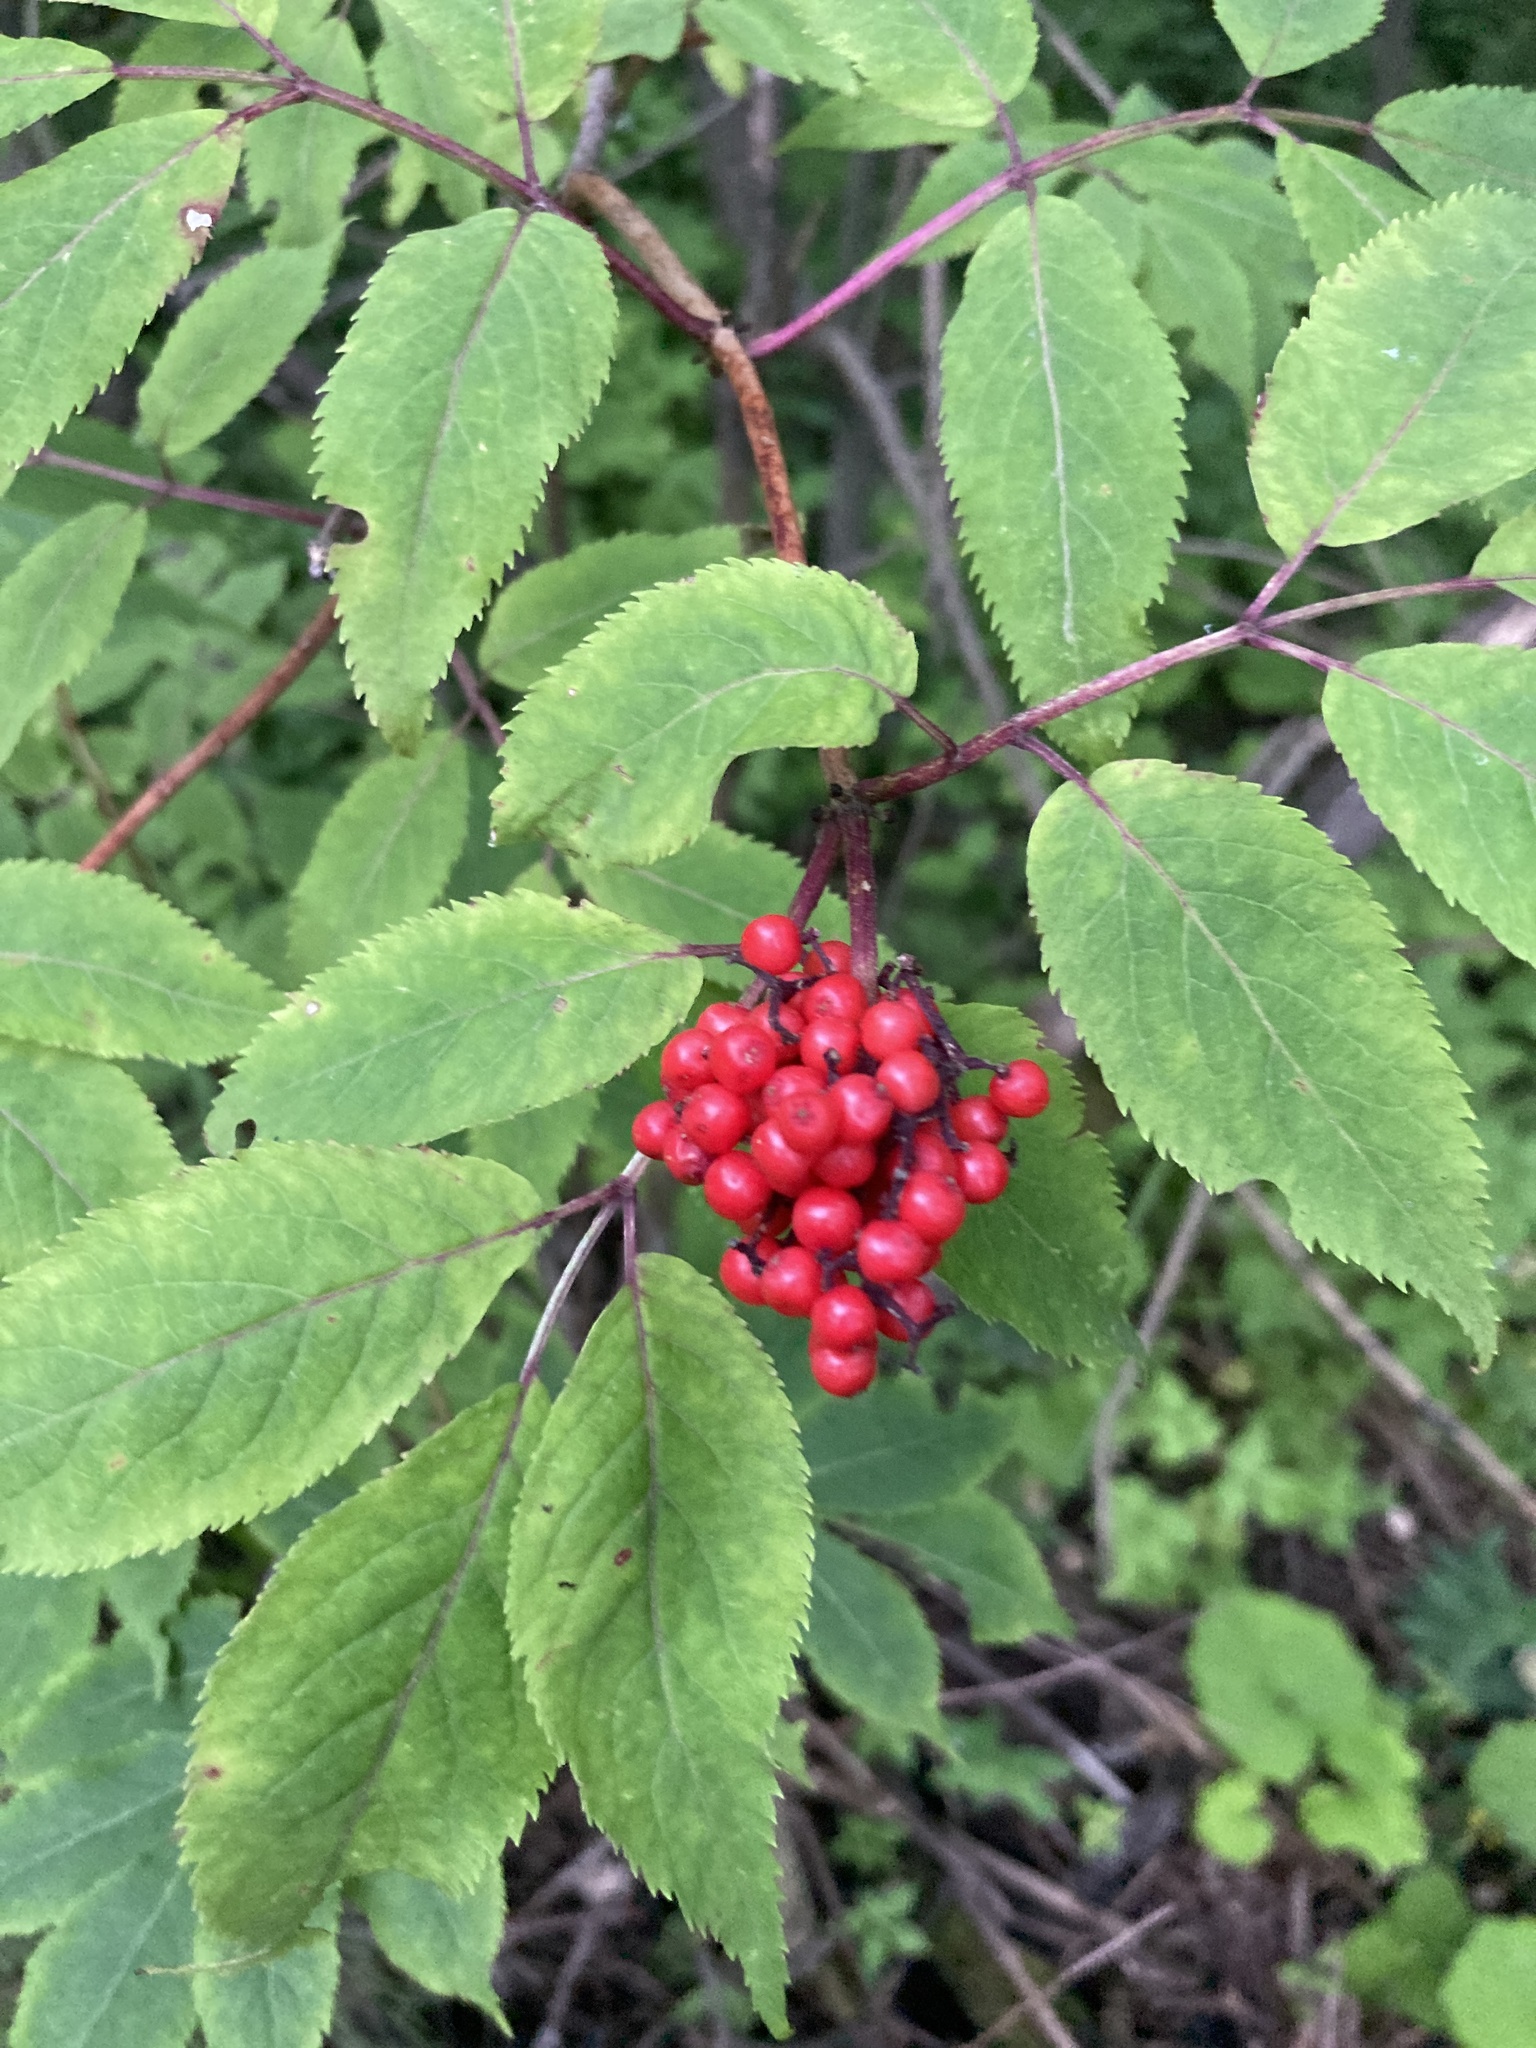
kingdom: Plantae
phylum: Tracheophyta
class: Magnoliopsida
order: Dipsacales
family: Viburnaceae
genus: Sambucus
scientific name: Sambucus racemosa
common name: Red-berried elder
